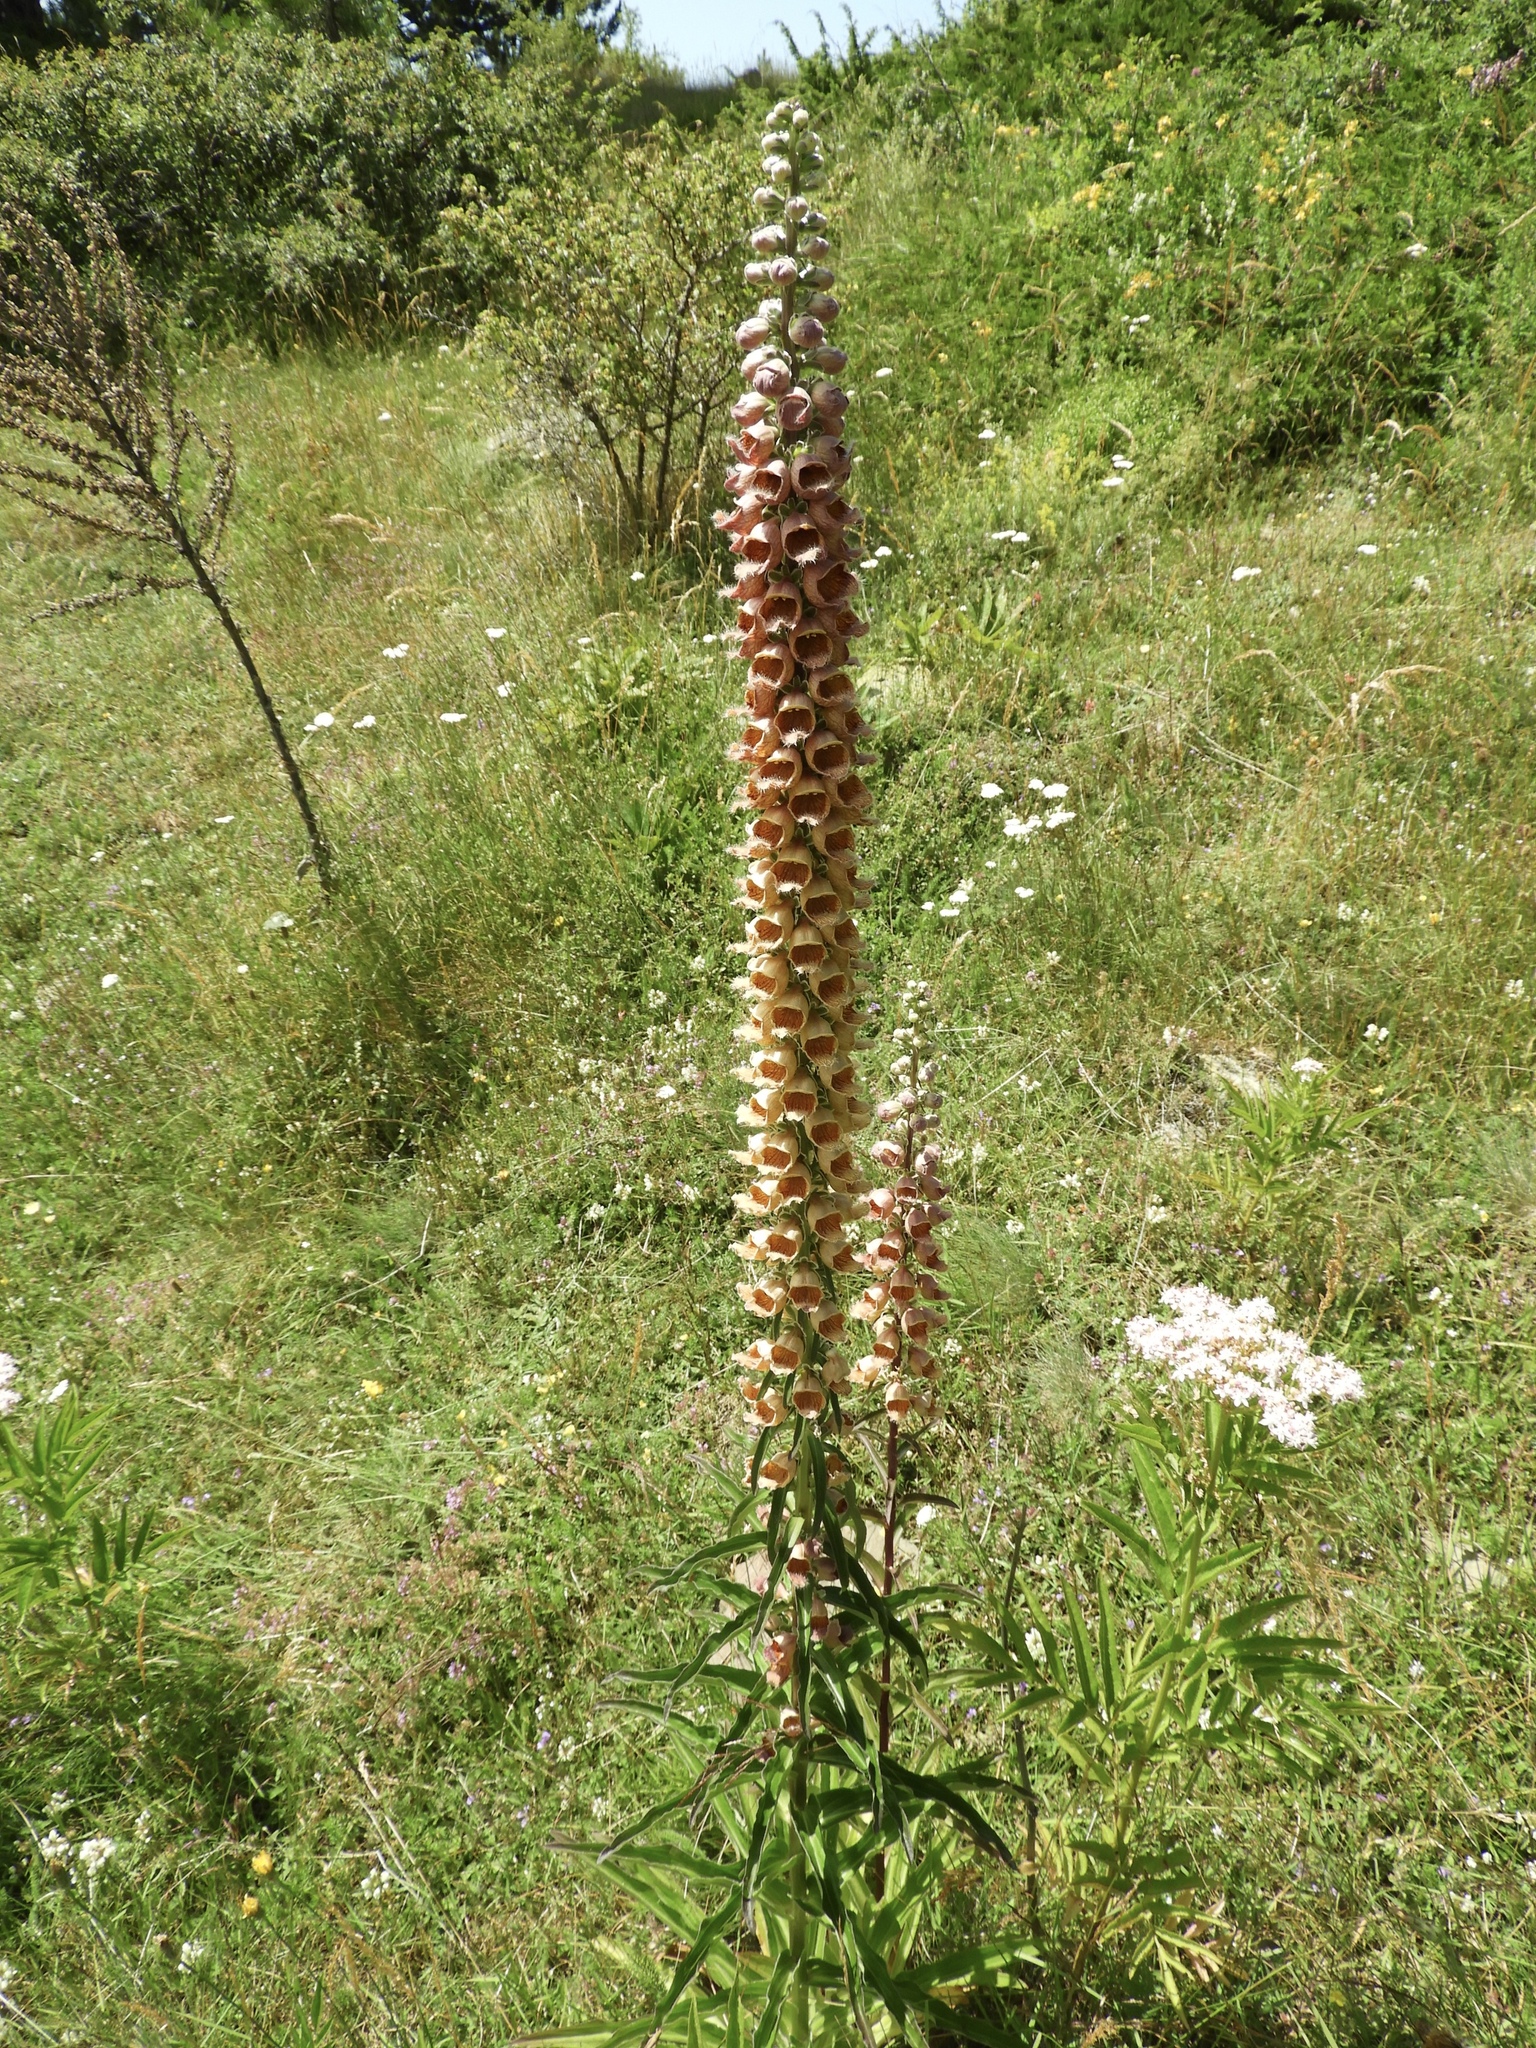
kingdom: Plantae
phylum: Tracheophyta
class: Magnoliopsida
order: Lamiales
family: Plantaginaceae
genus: Digitalis
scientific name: Digitalis ferruginea
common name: Rusty foxglove
